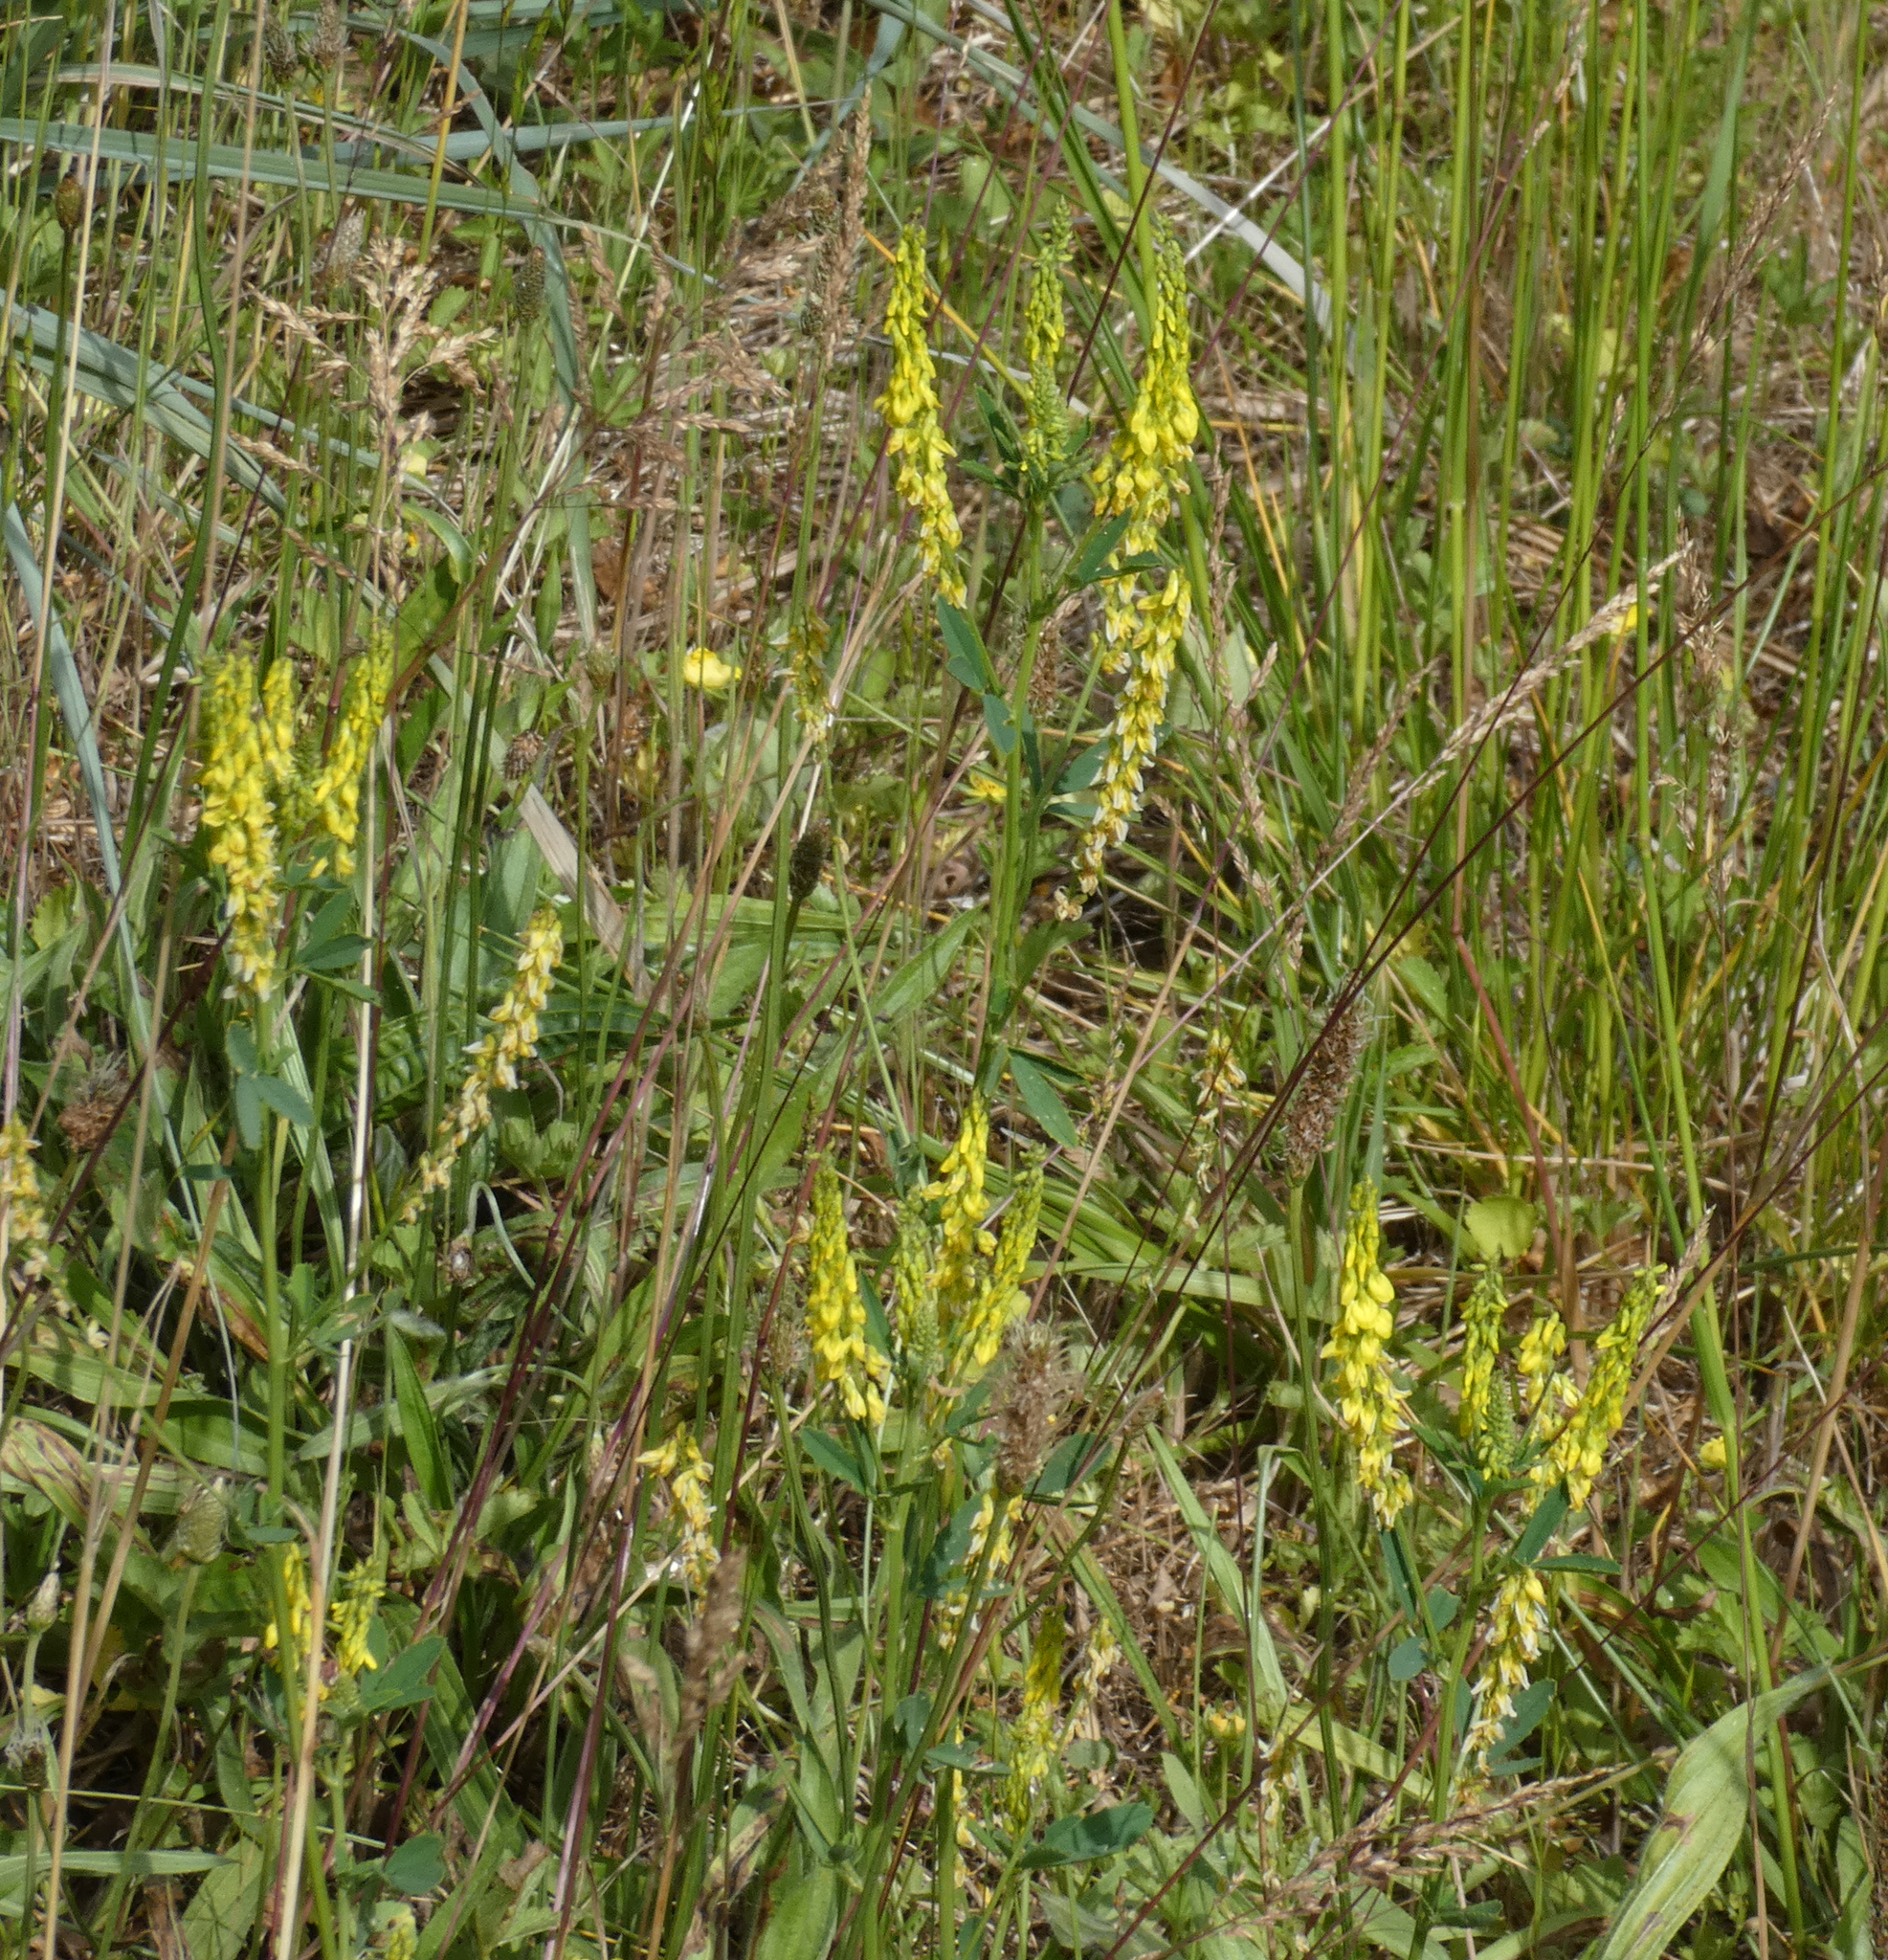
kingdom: Plantae
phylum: Tracheophyta
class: Magnoliopsida
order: Fabales
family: Fabaceae
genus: Melilotus
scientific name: Melilotus officinalis
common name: Sweetclover
